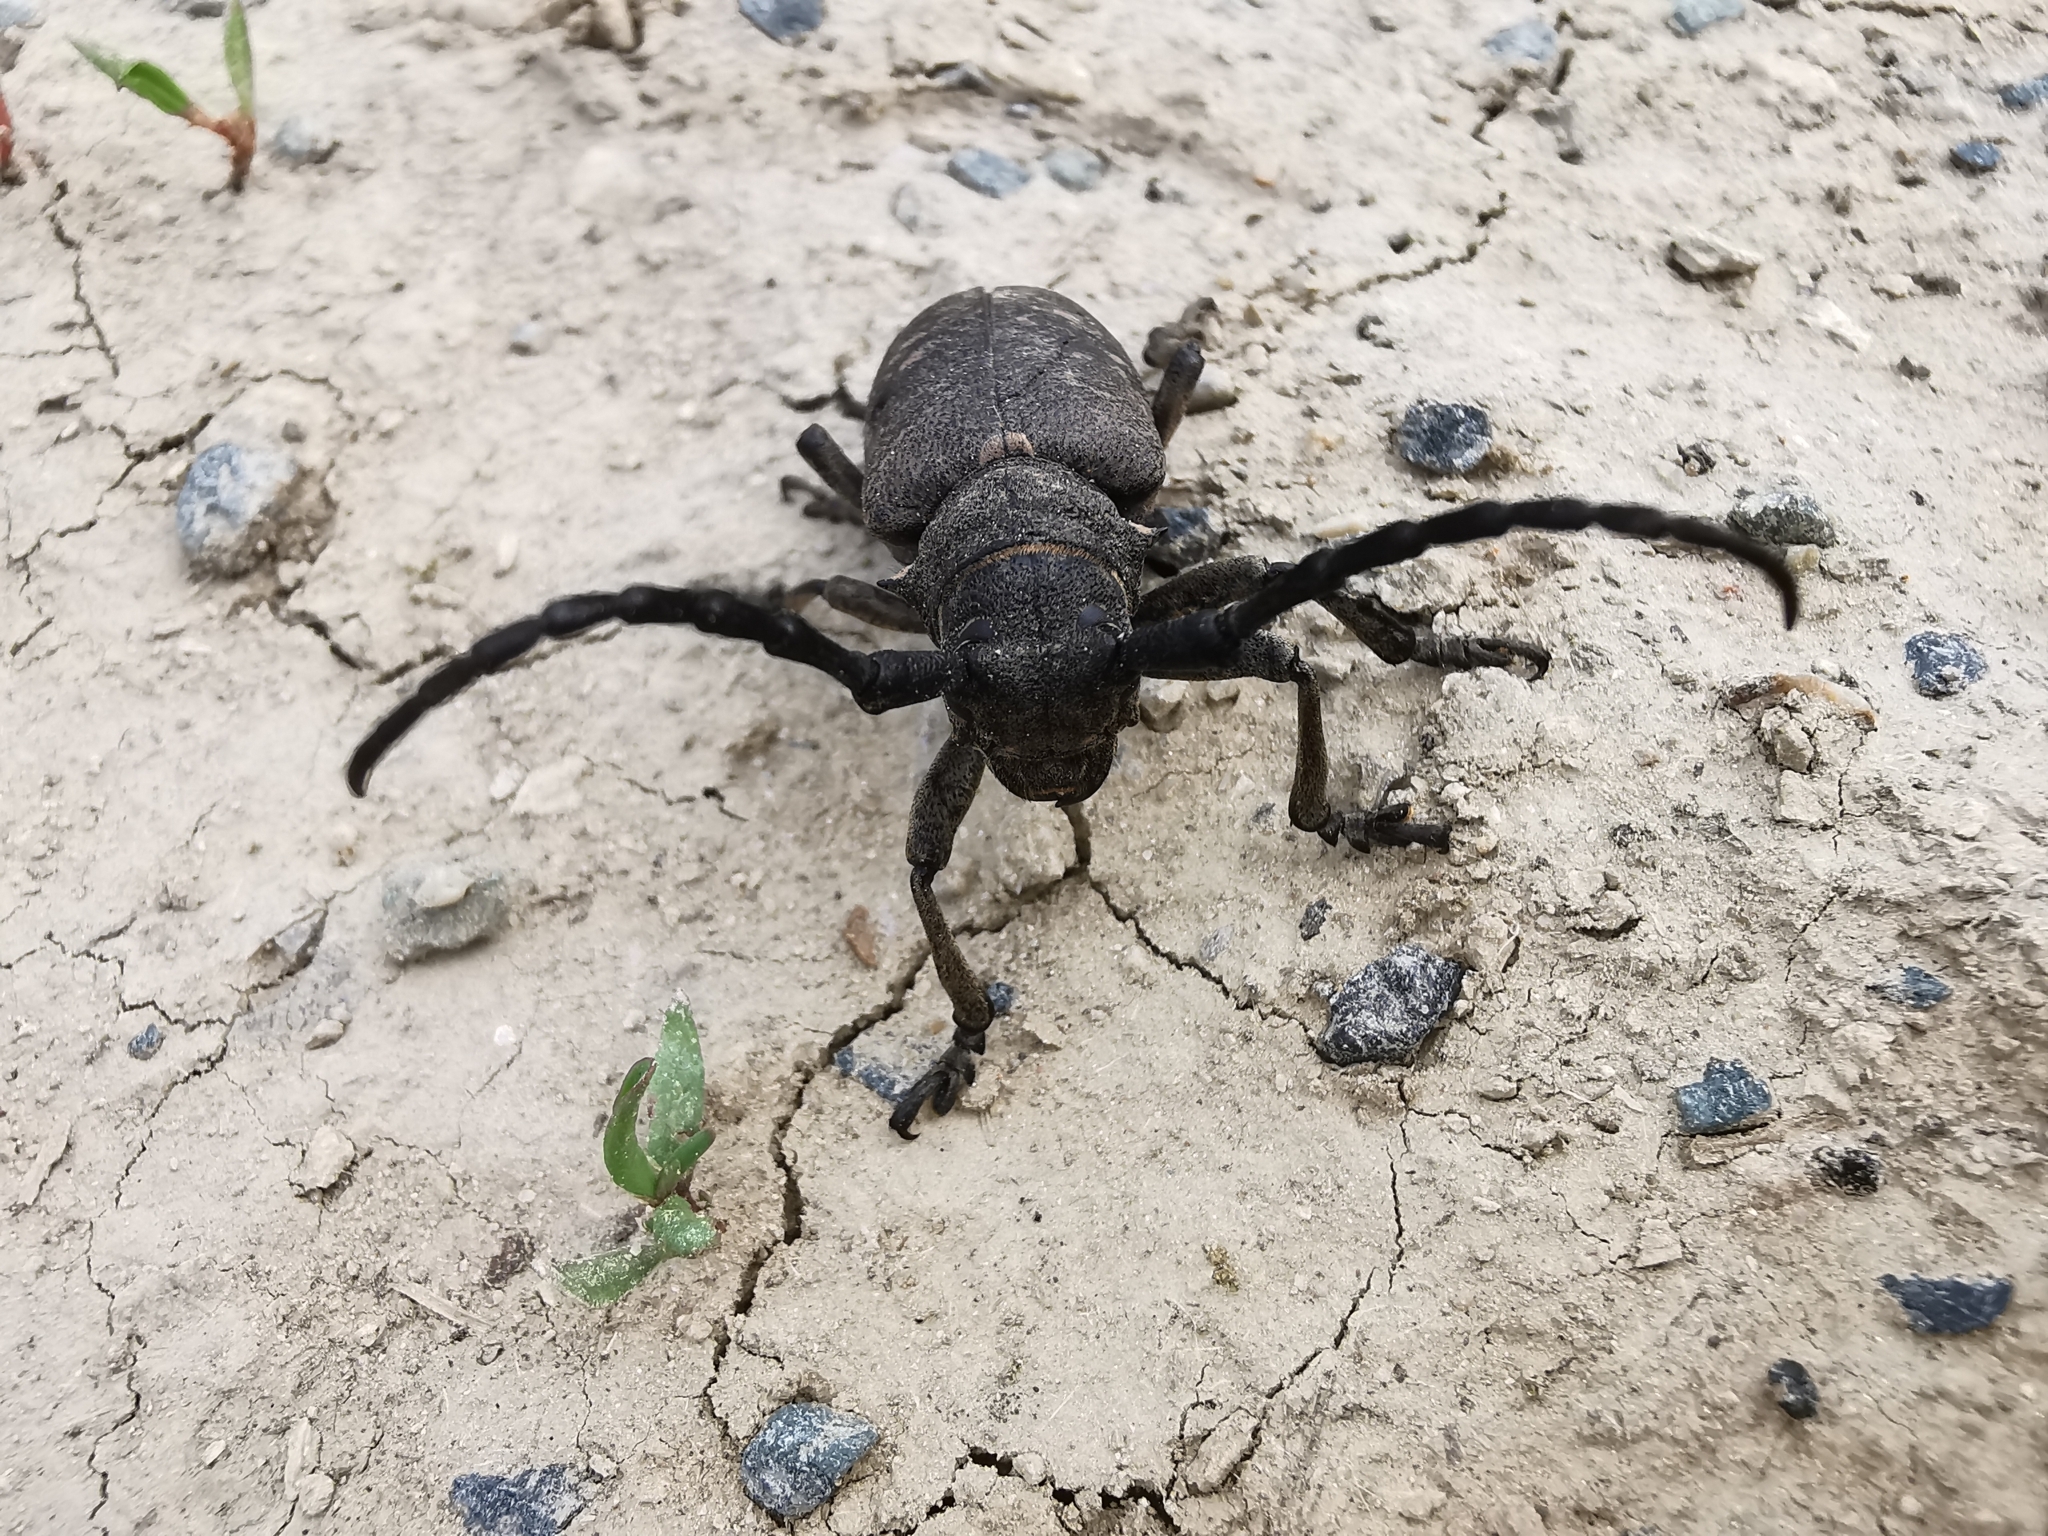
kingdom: Animalia
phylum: Arthropoda
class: Insecta
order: Coleoptera
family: Cerambycidae
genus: Lamia
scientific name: Lamia textor
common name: Weaver beetle
